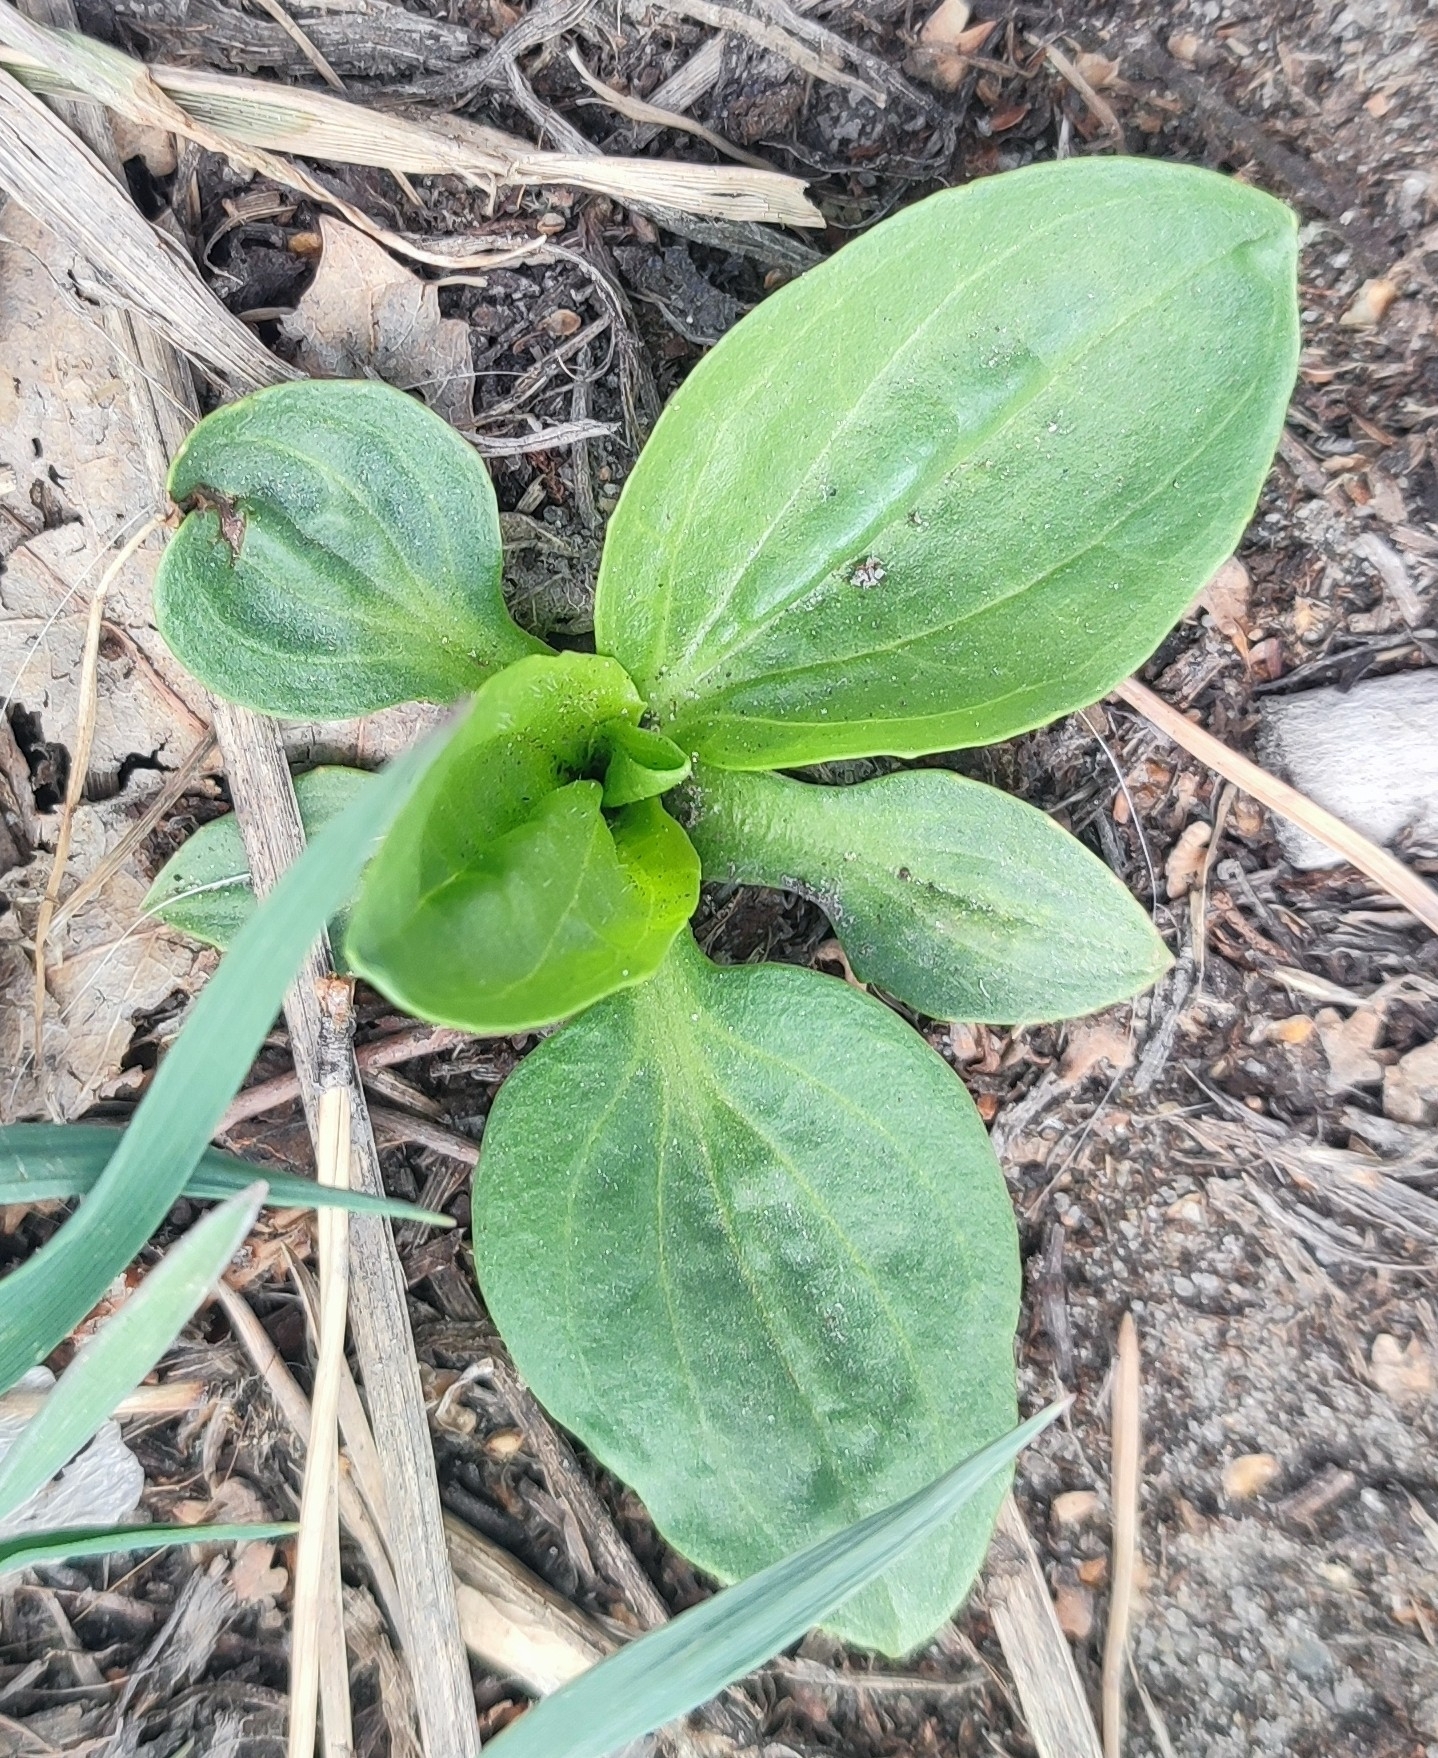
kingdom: Plantae
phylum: Tracheophyta
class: Magnoliopsida
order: Lamiales
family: Plantaginaceae
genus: Plantago
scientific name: Plantago major
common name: Common plantain
